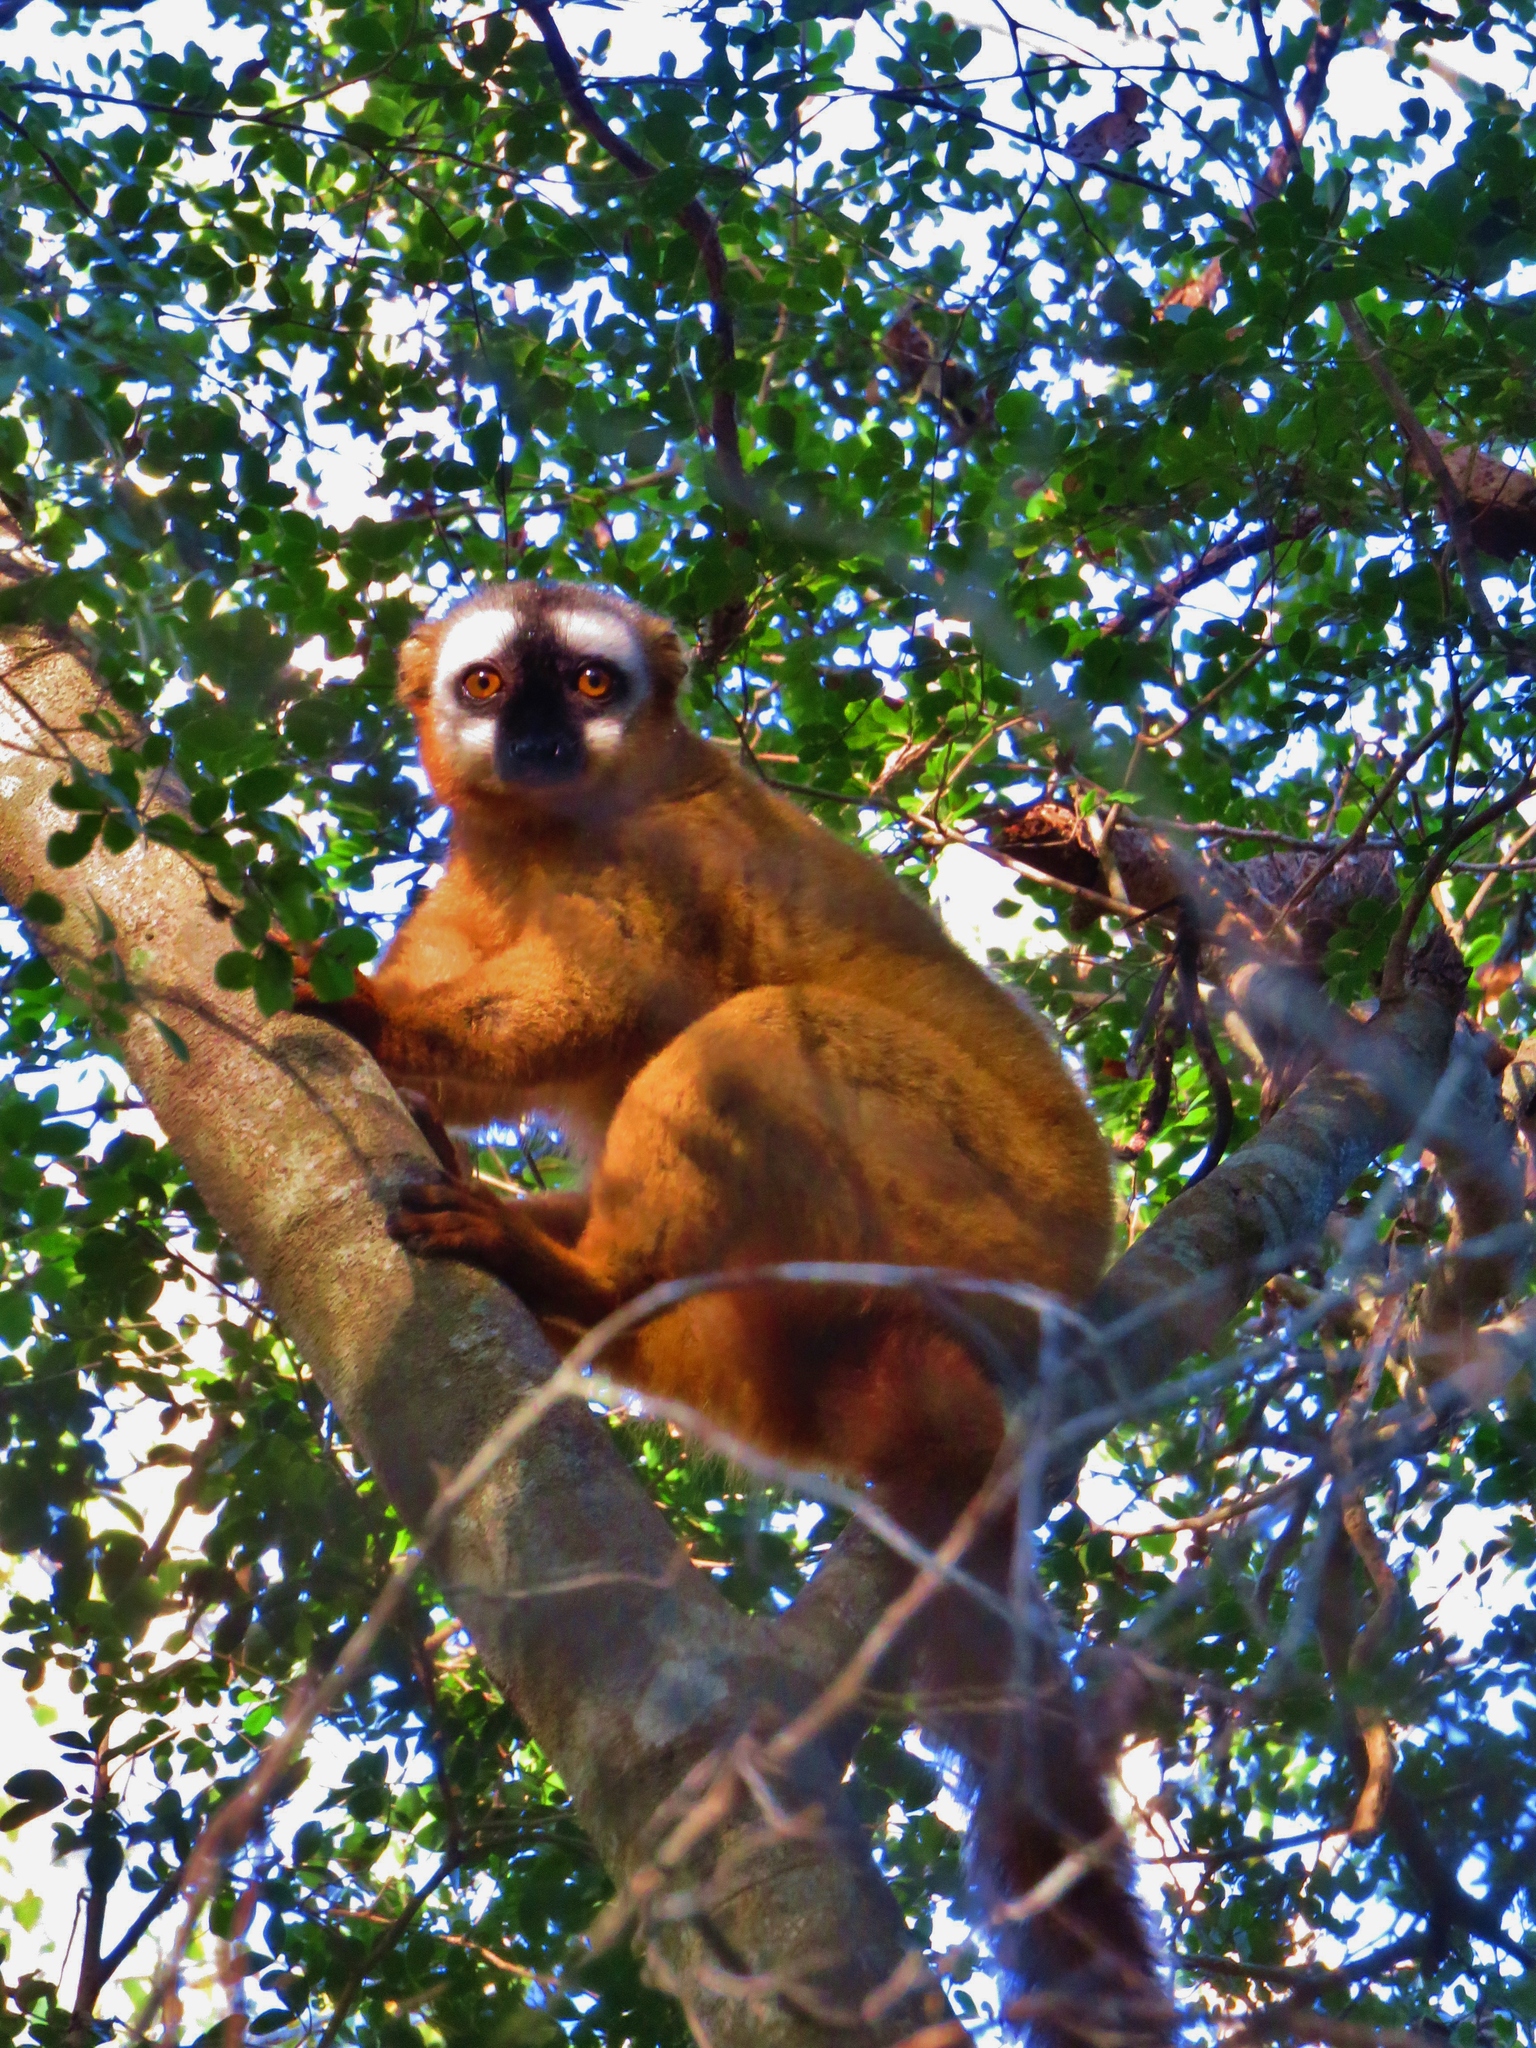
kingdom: Animalia
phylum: Chordata
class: Mammalia
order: Primates
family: Lemuridae
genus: Eulemur
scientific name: Eulemur rufus
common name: Red-fronted lemur
